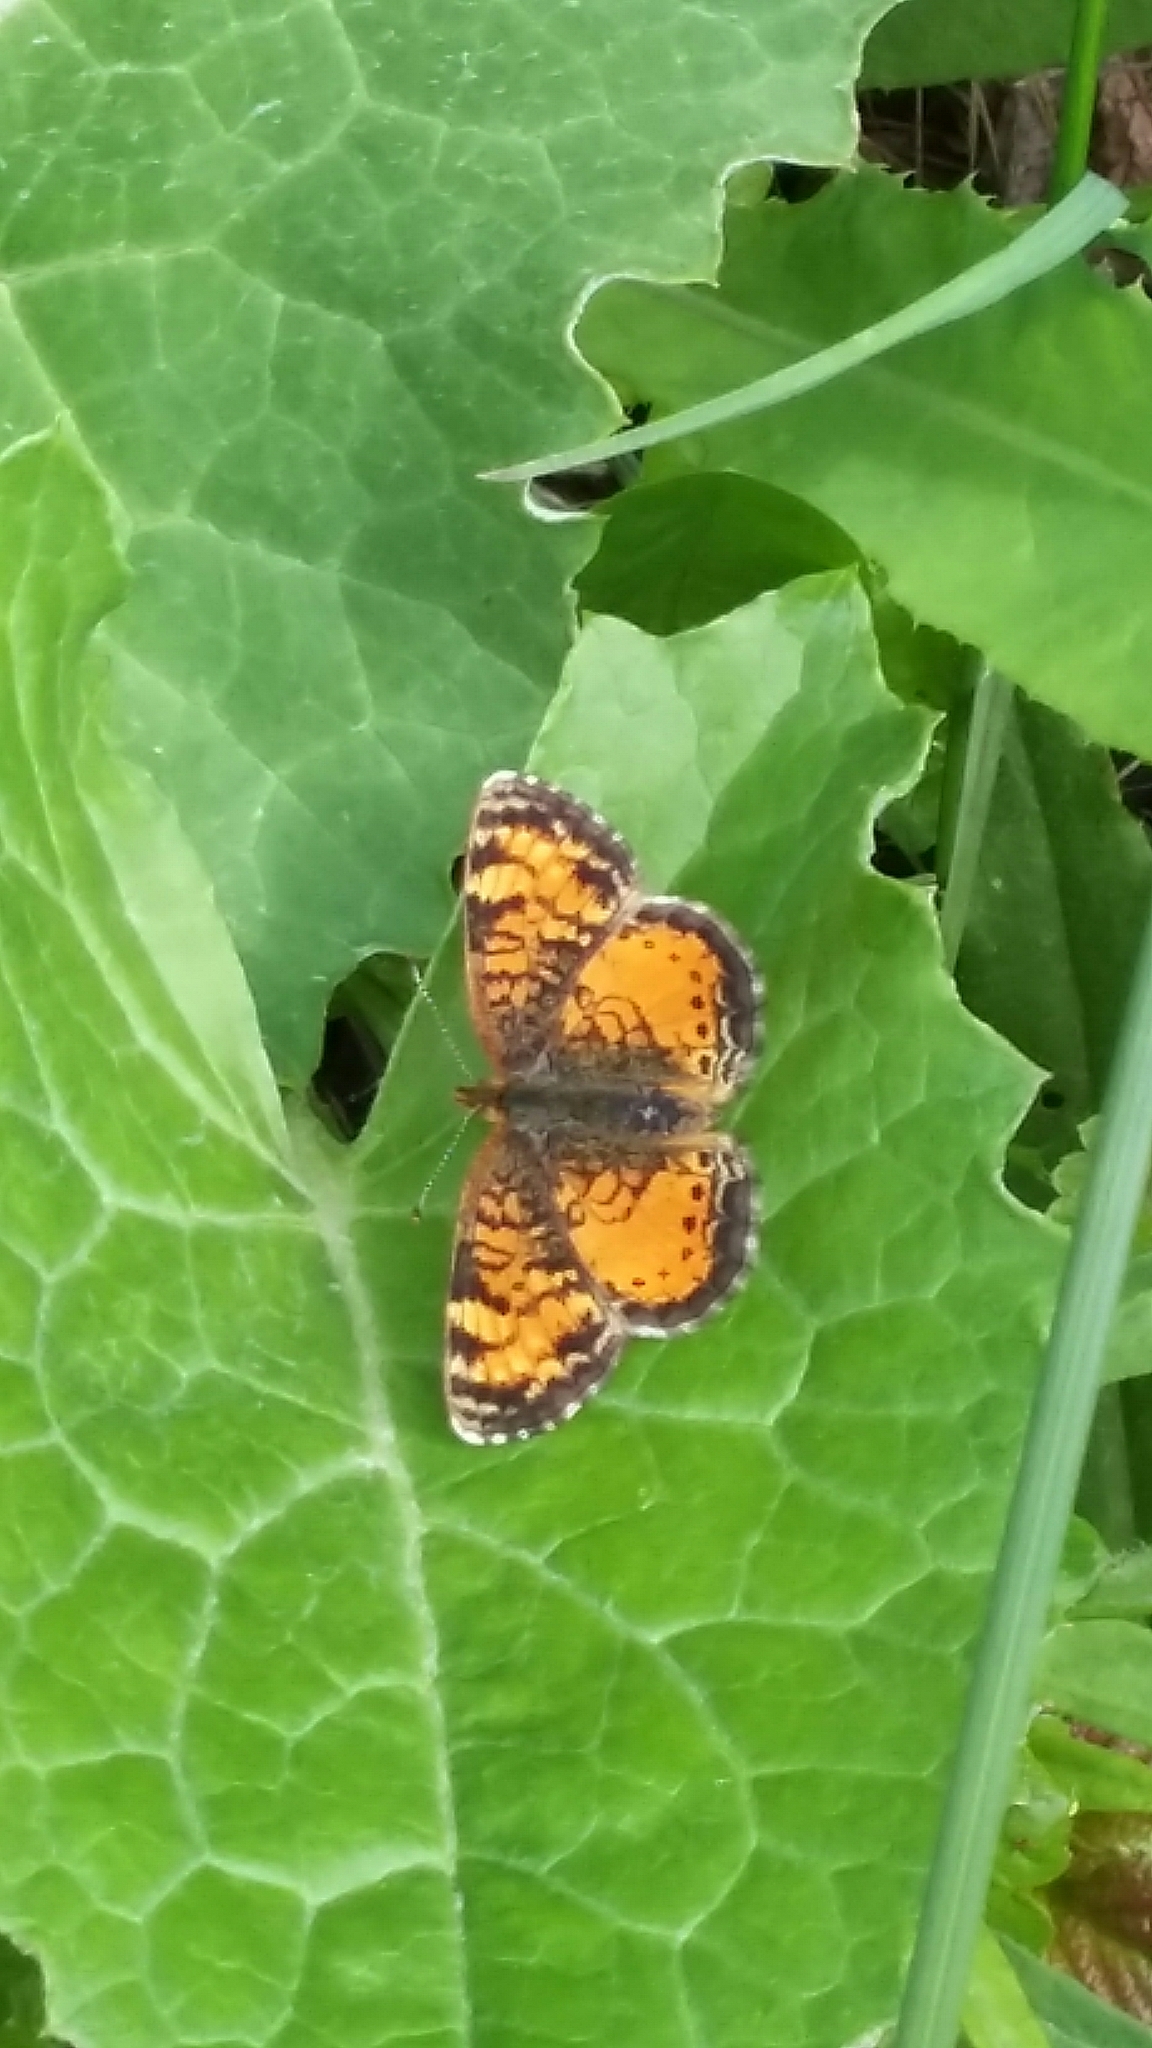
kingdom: Animalia
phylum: Arthropoda
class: Insecta
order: Lepidoptera
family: Nymphalidae
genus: Phyciodes
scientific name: Phyciodes tharos
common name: Pearl crescent
